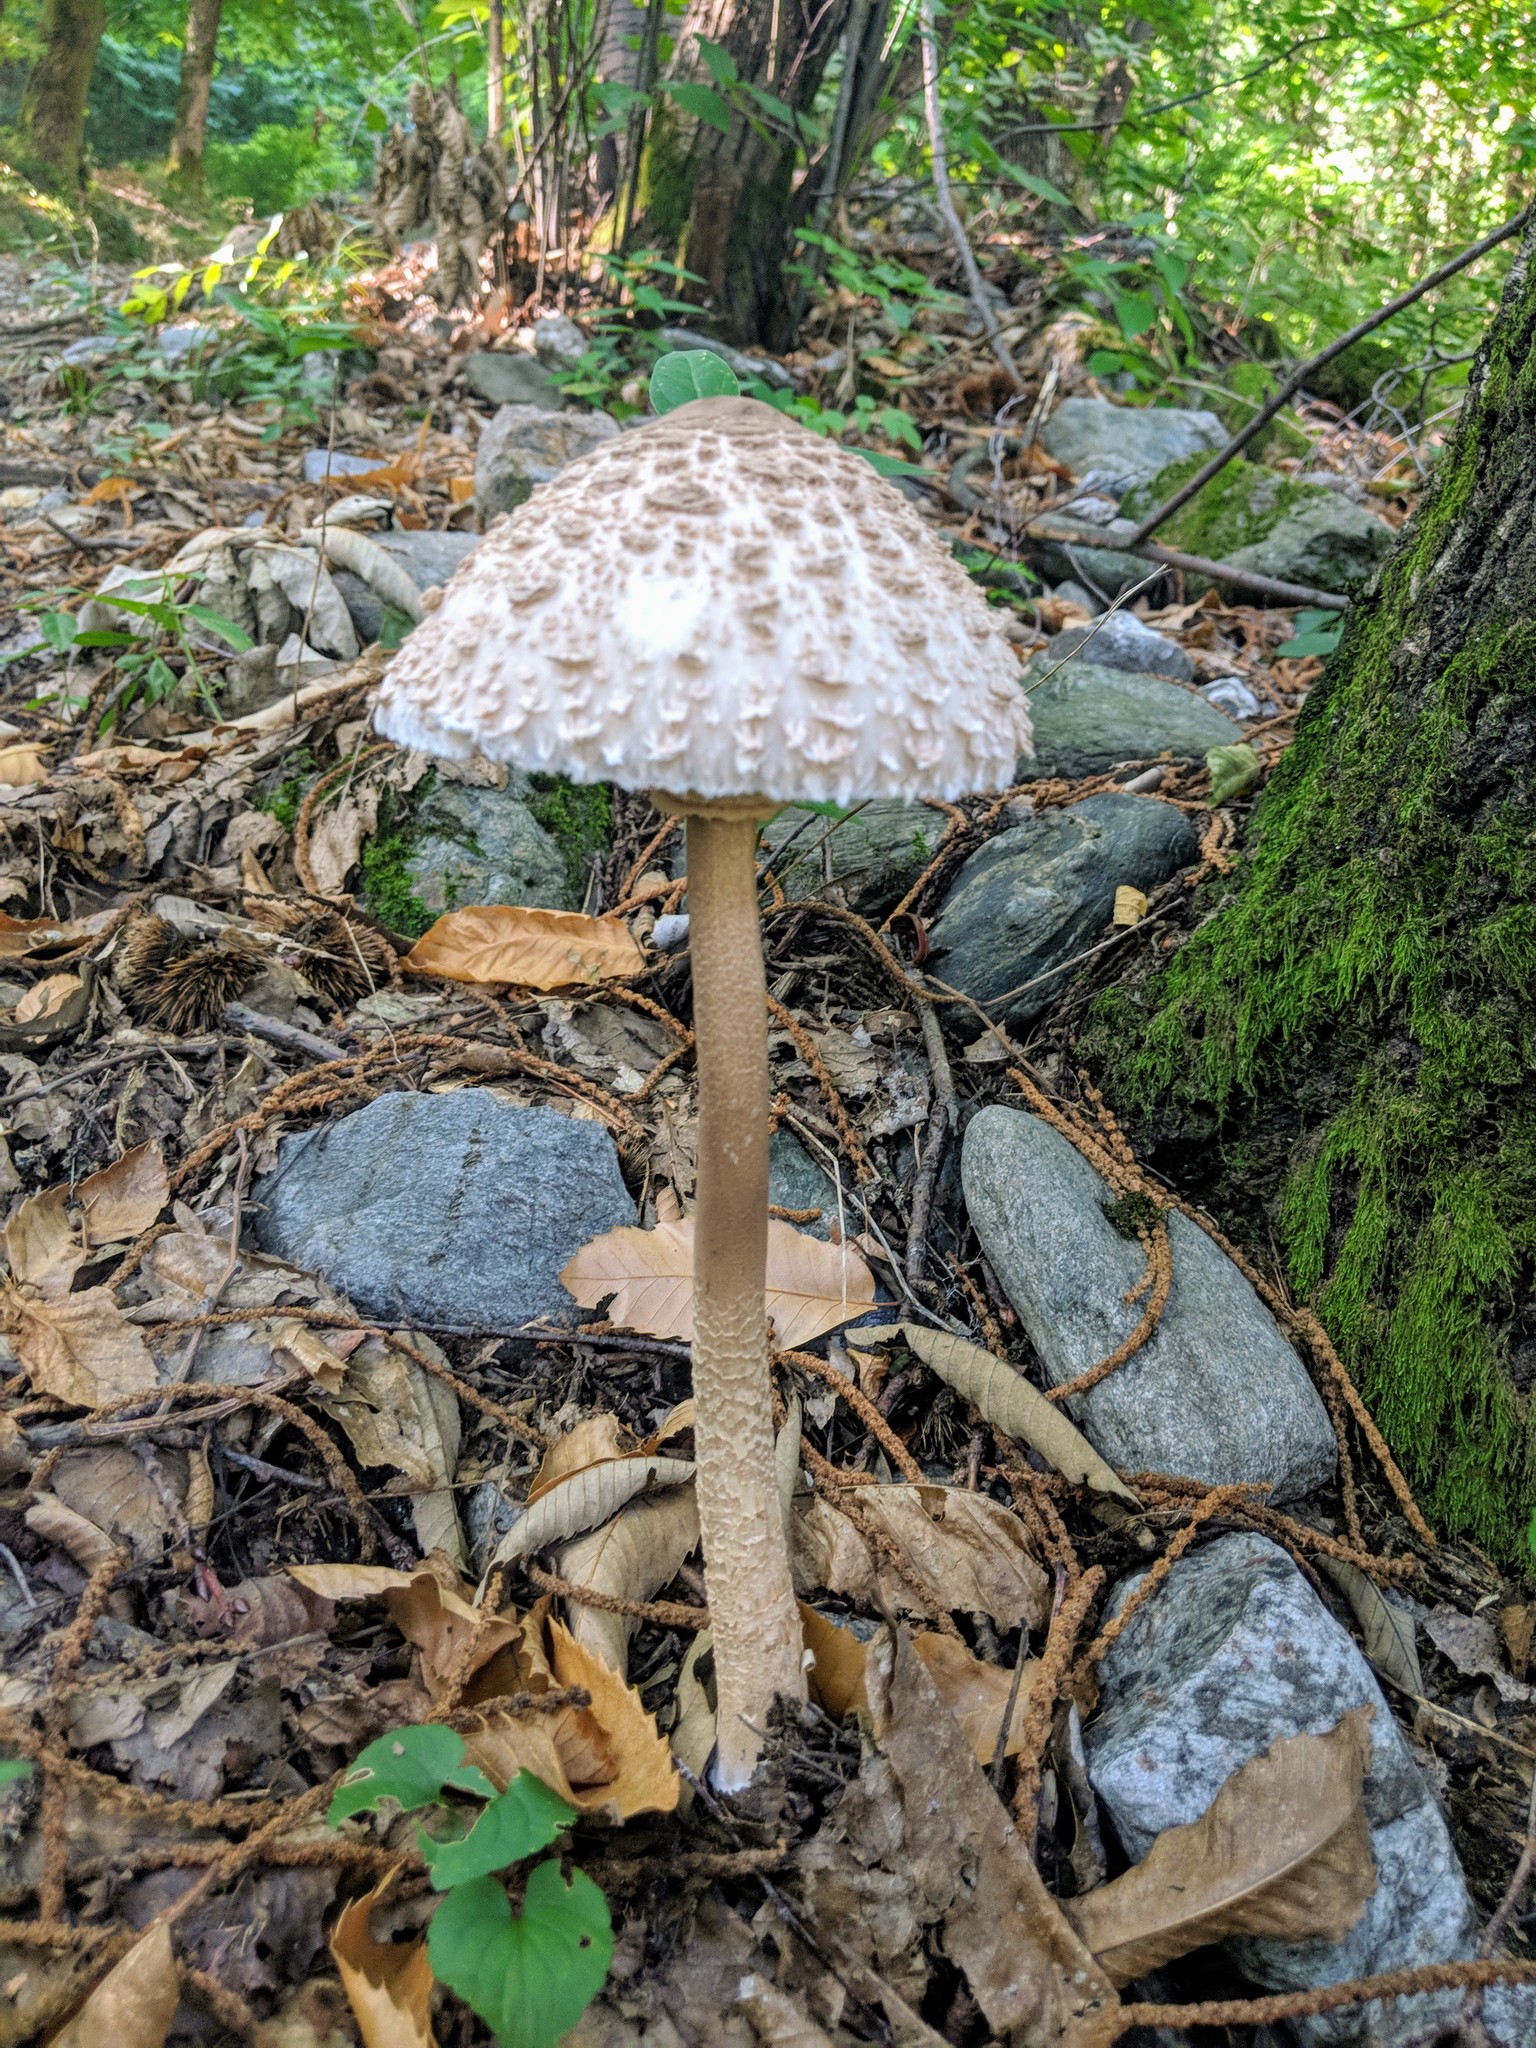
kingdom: Fungi
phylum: Basidiomycota
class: Agaricomycetes
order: Agaricales
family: Agaricaceae
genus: Macrolepiota
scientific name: Macrolepiota procera
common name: Parasol
